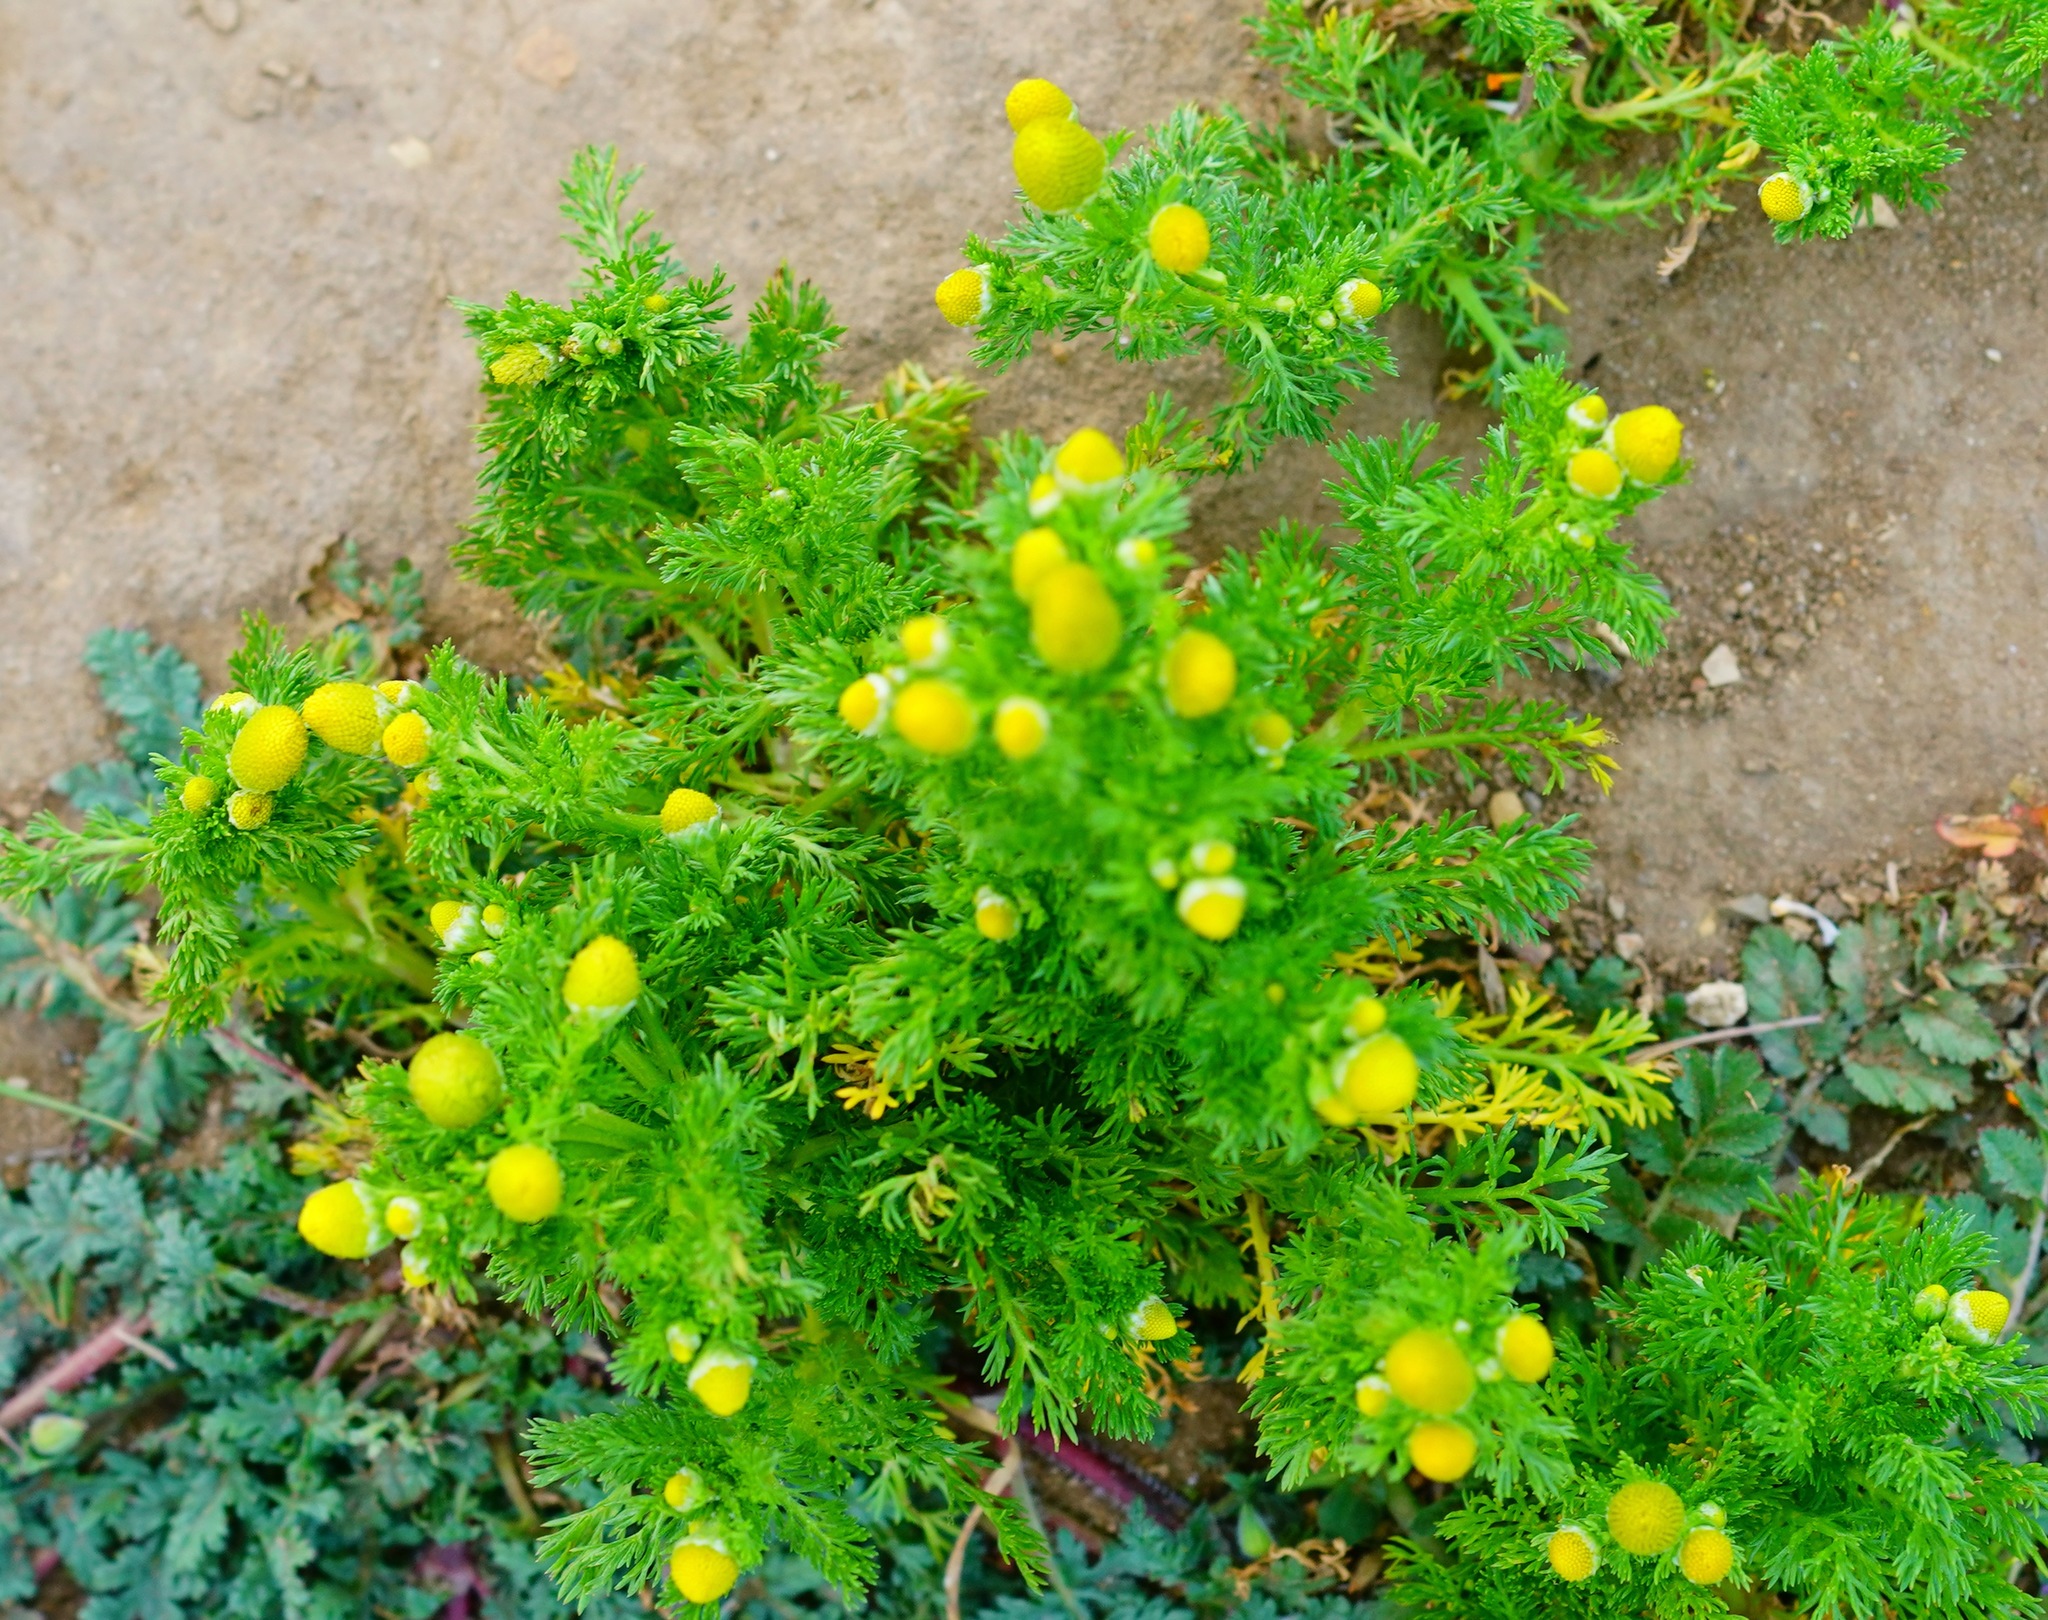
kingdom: Plantae
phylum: Tracheophyta
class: Magnoliopsida
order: Asterales
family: Asteraceae
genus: Matricaria
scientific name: Matricaria discoidea
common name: Disc mayweed
